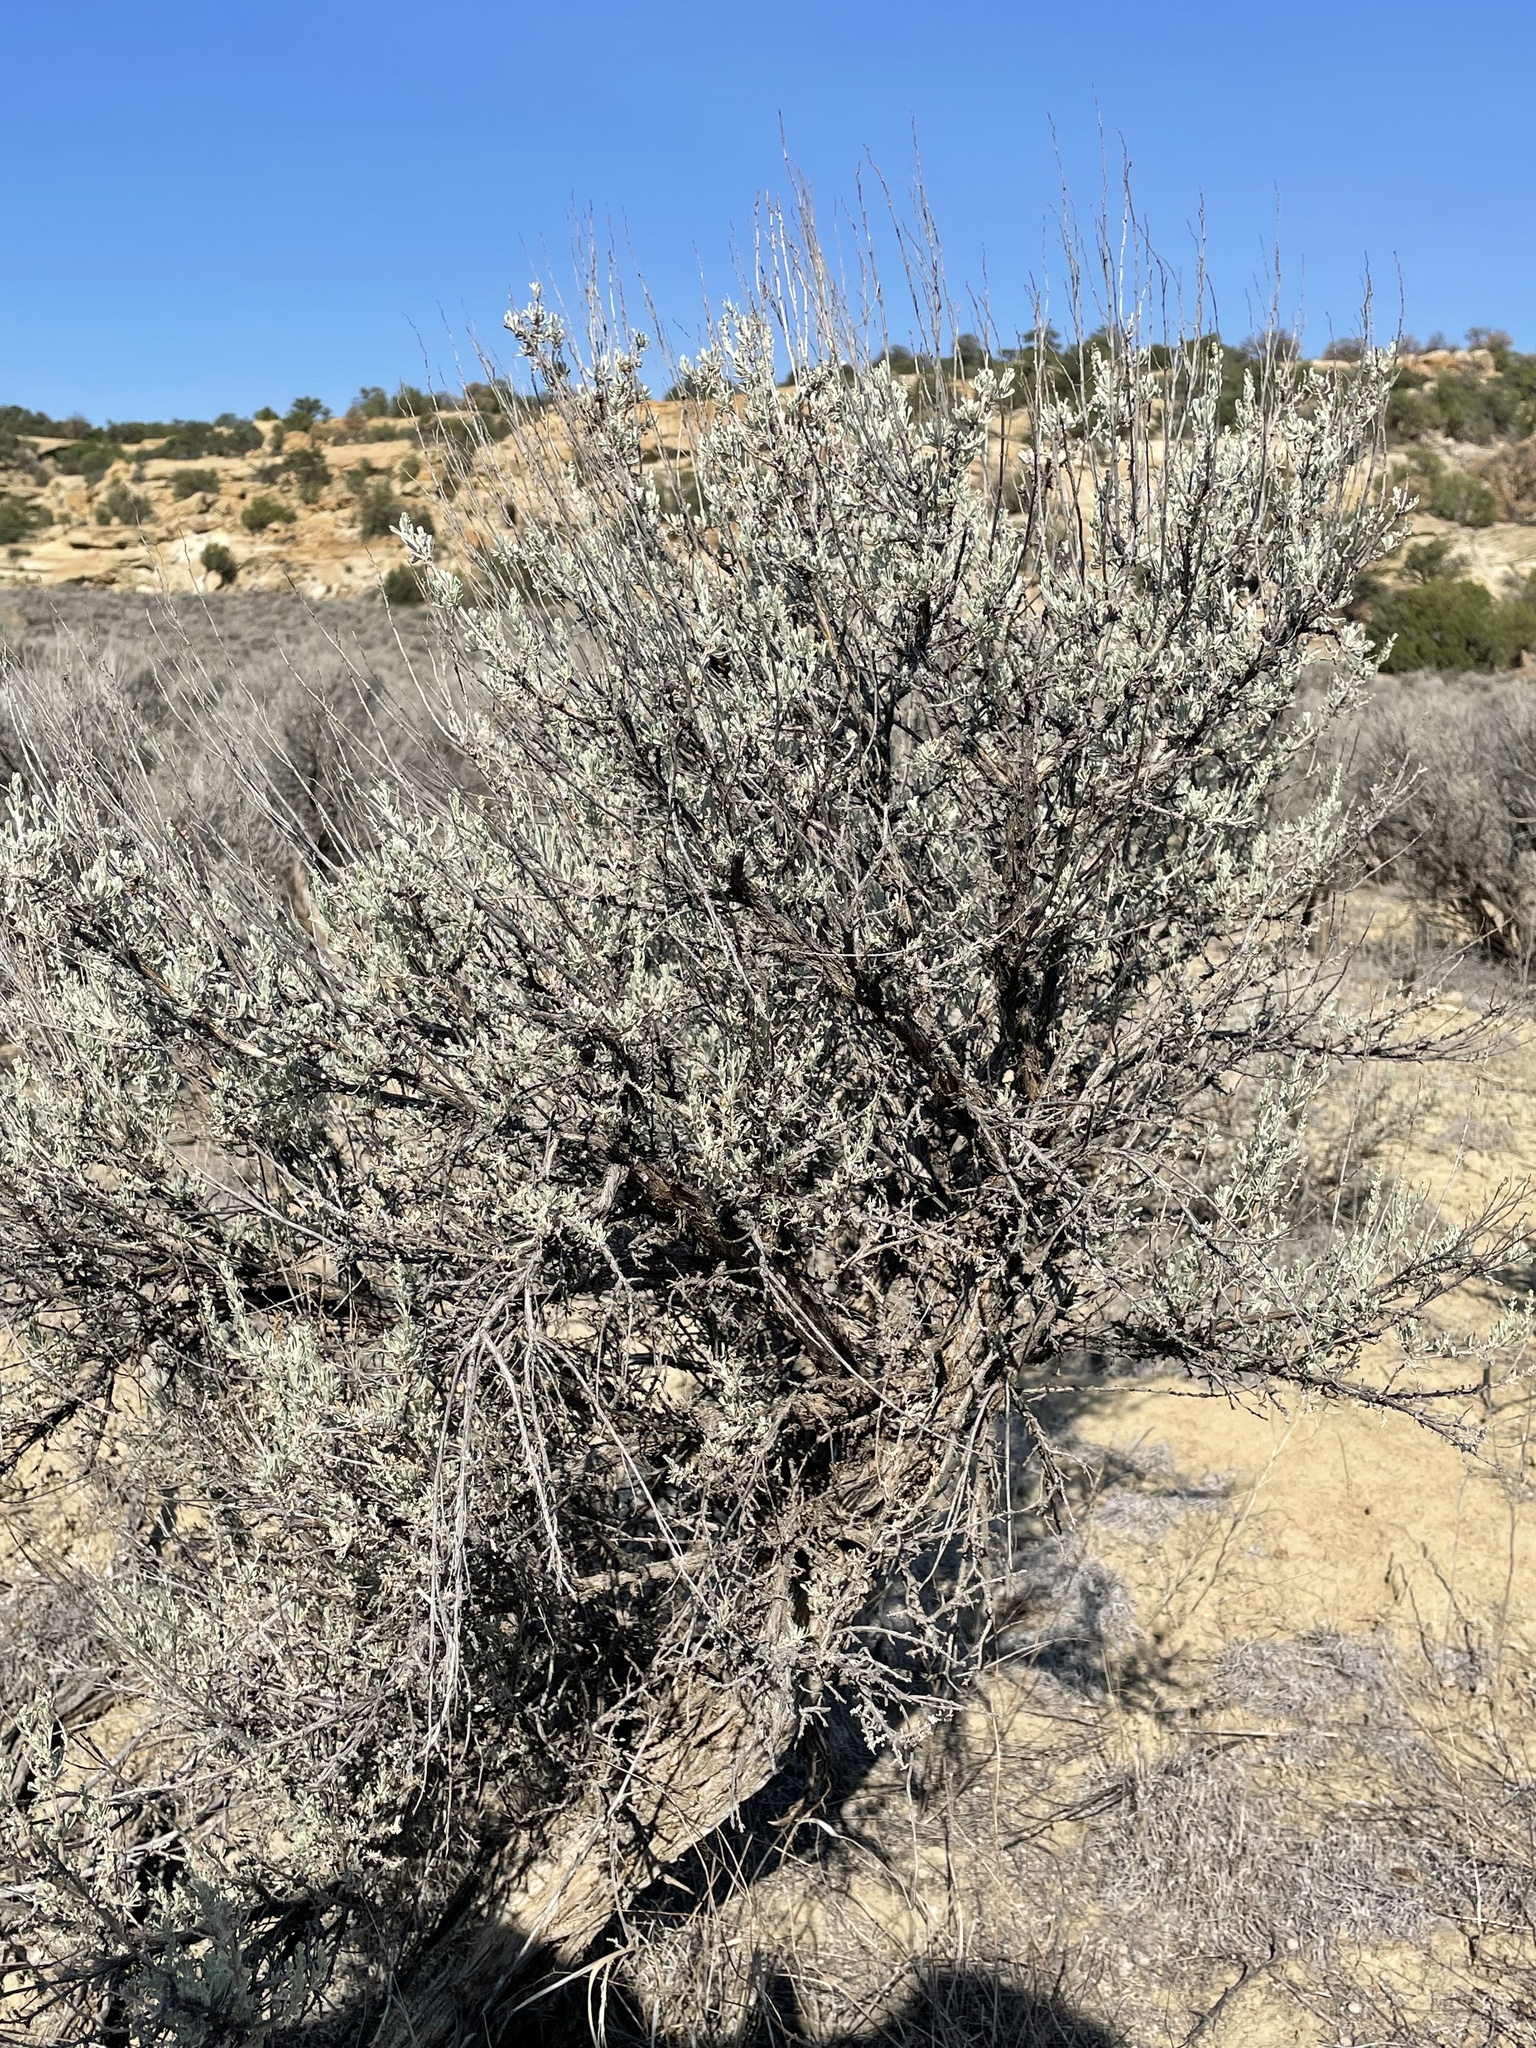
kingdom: Plantae
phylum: Tracheophyta
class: Magnoliopsida
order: Asterales
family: Asteraceae
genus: Artemisia
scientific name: Artemisia tridentata
